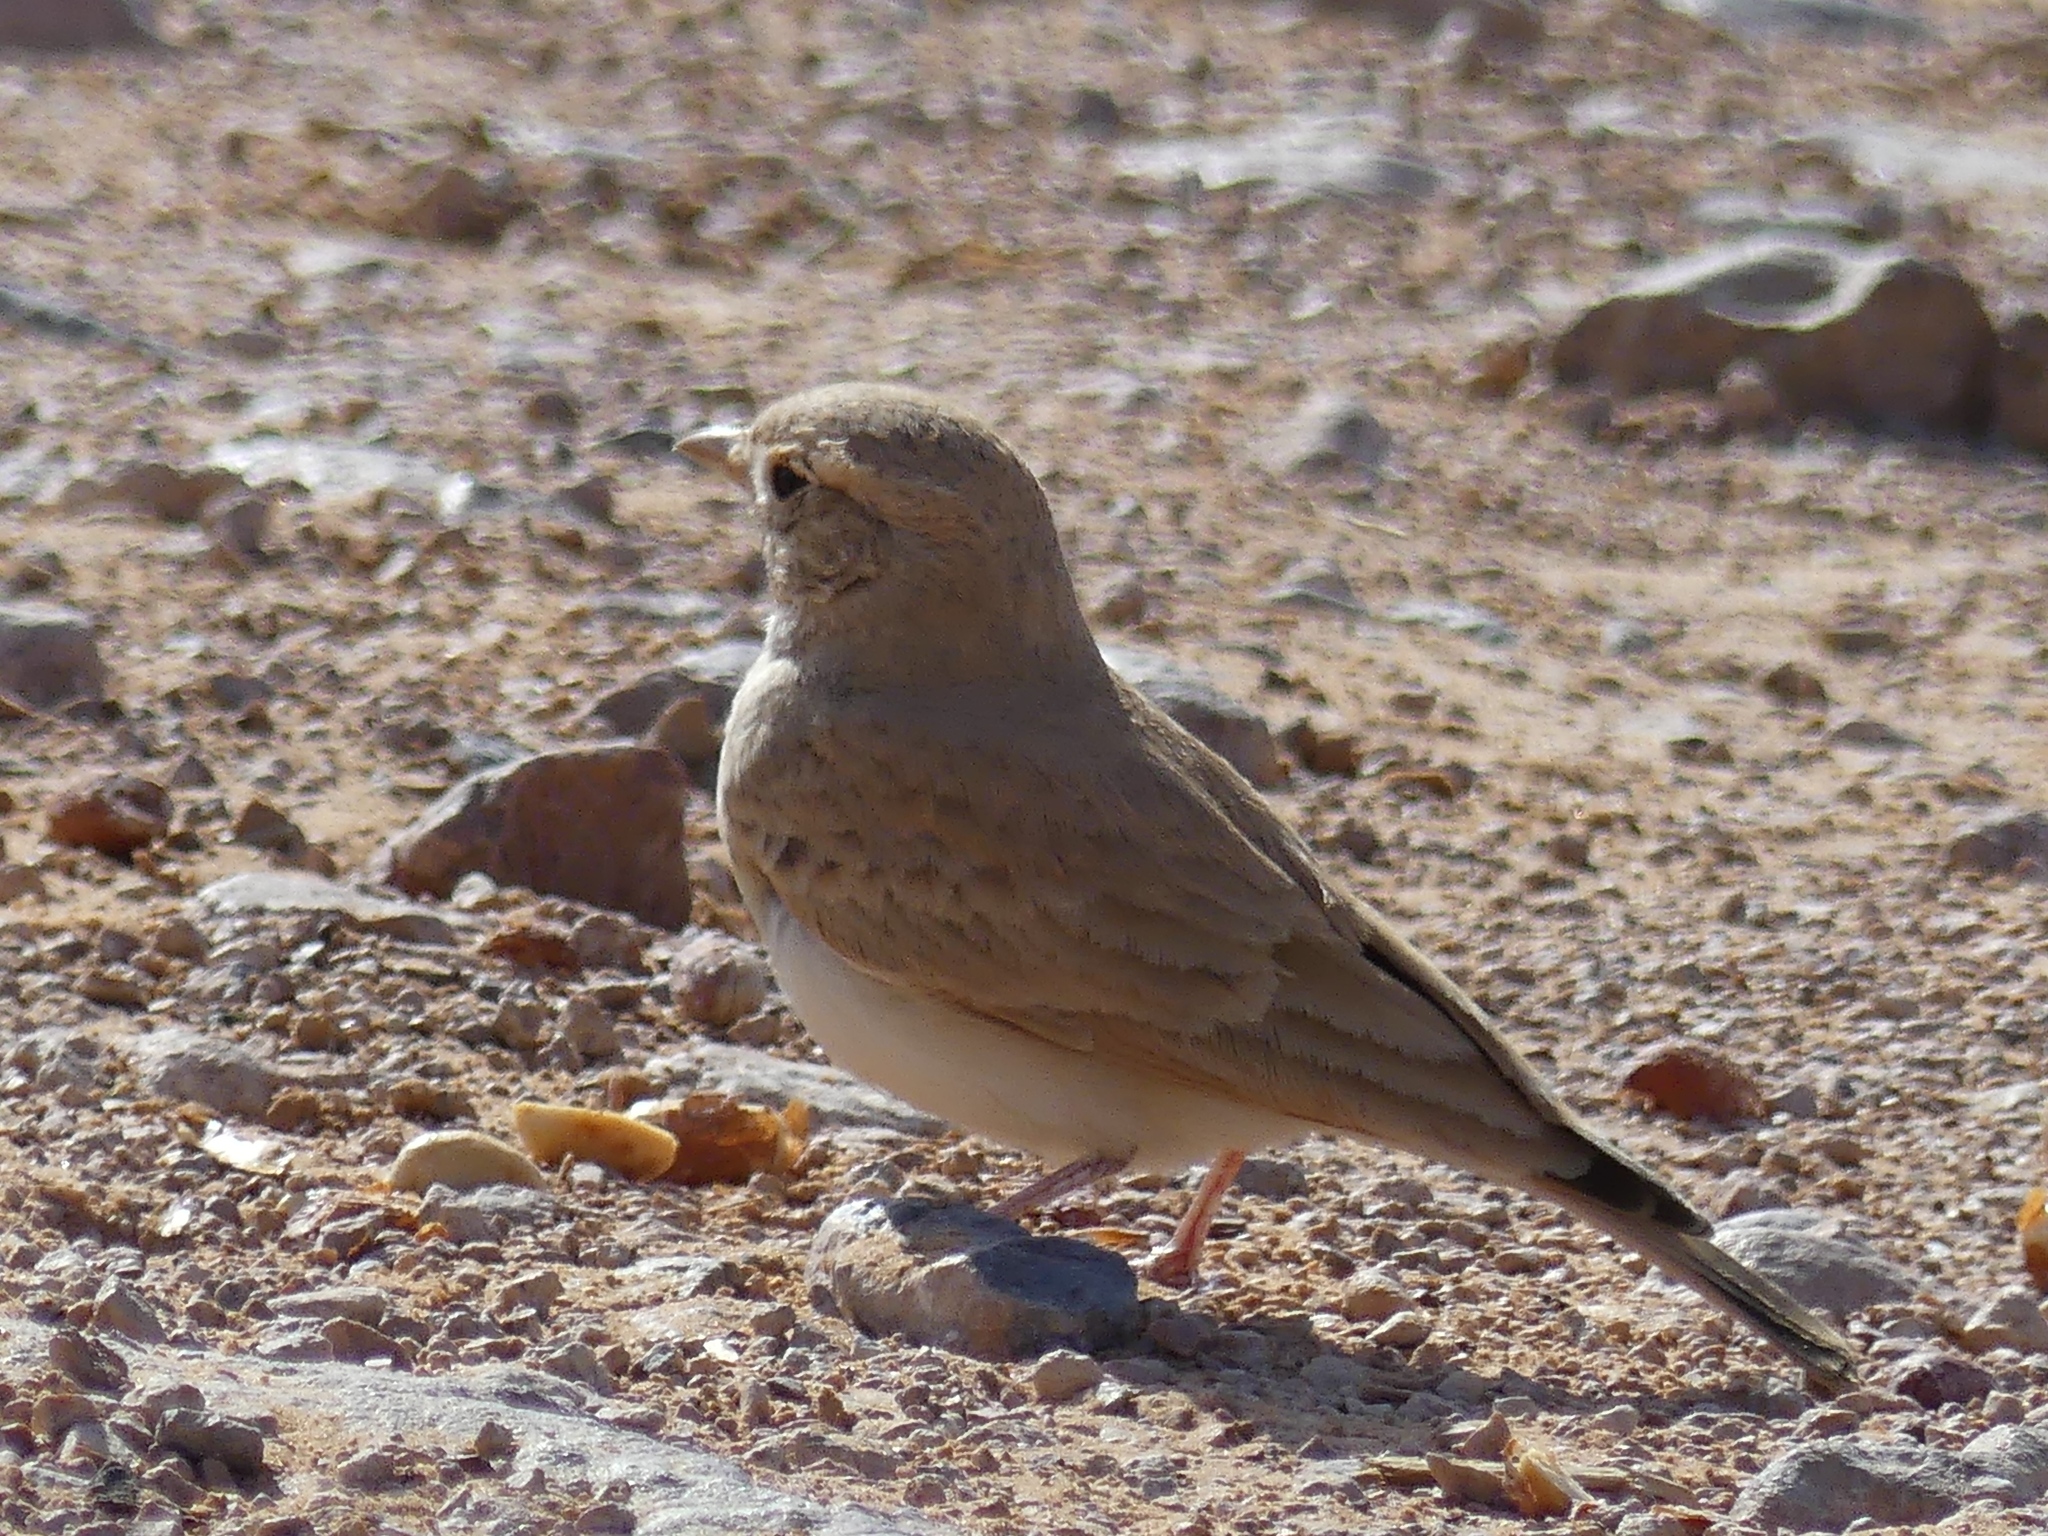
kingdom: Animalia
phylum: Chordata
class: Aves
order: Passeriformes
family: Alaudidae
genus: Ammomanes
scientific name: Ammomanes deserti
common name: Desert lark
